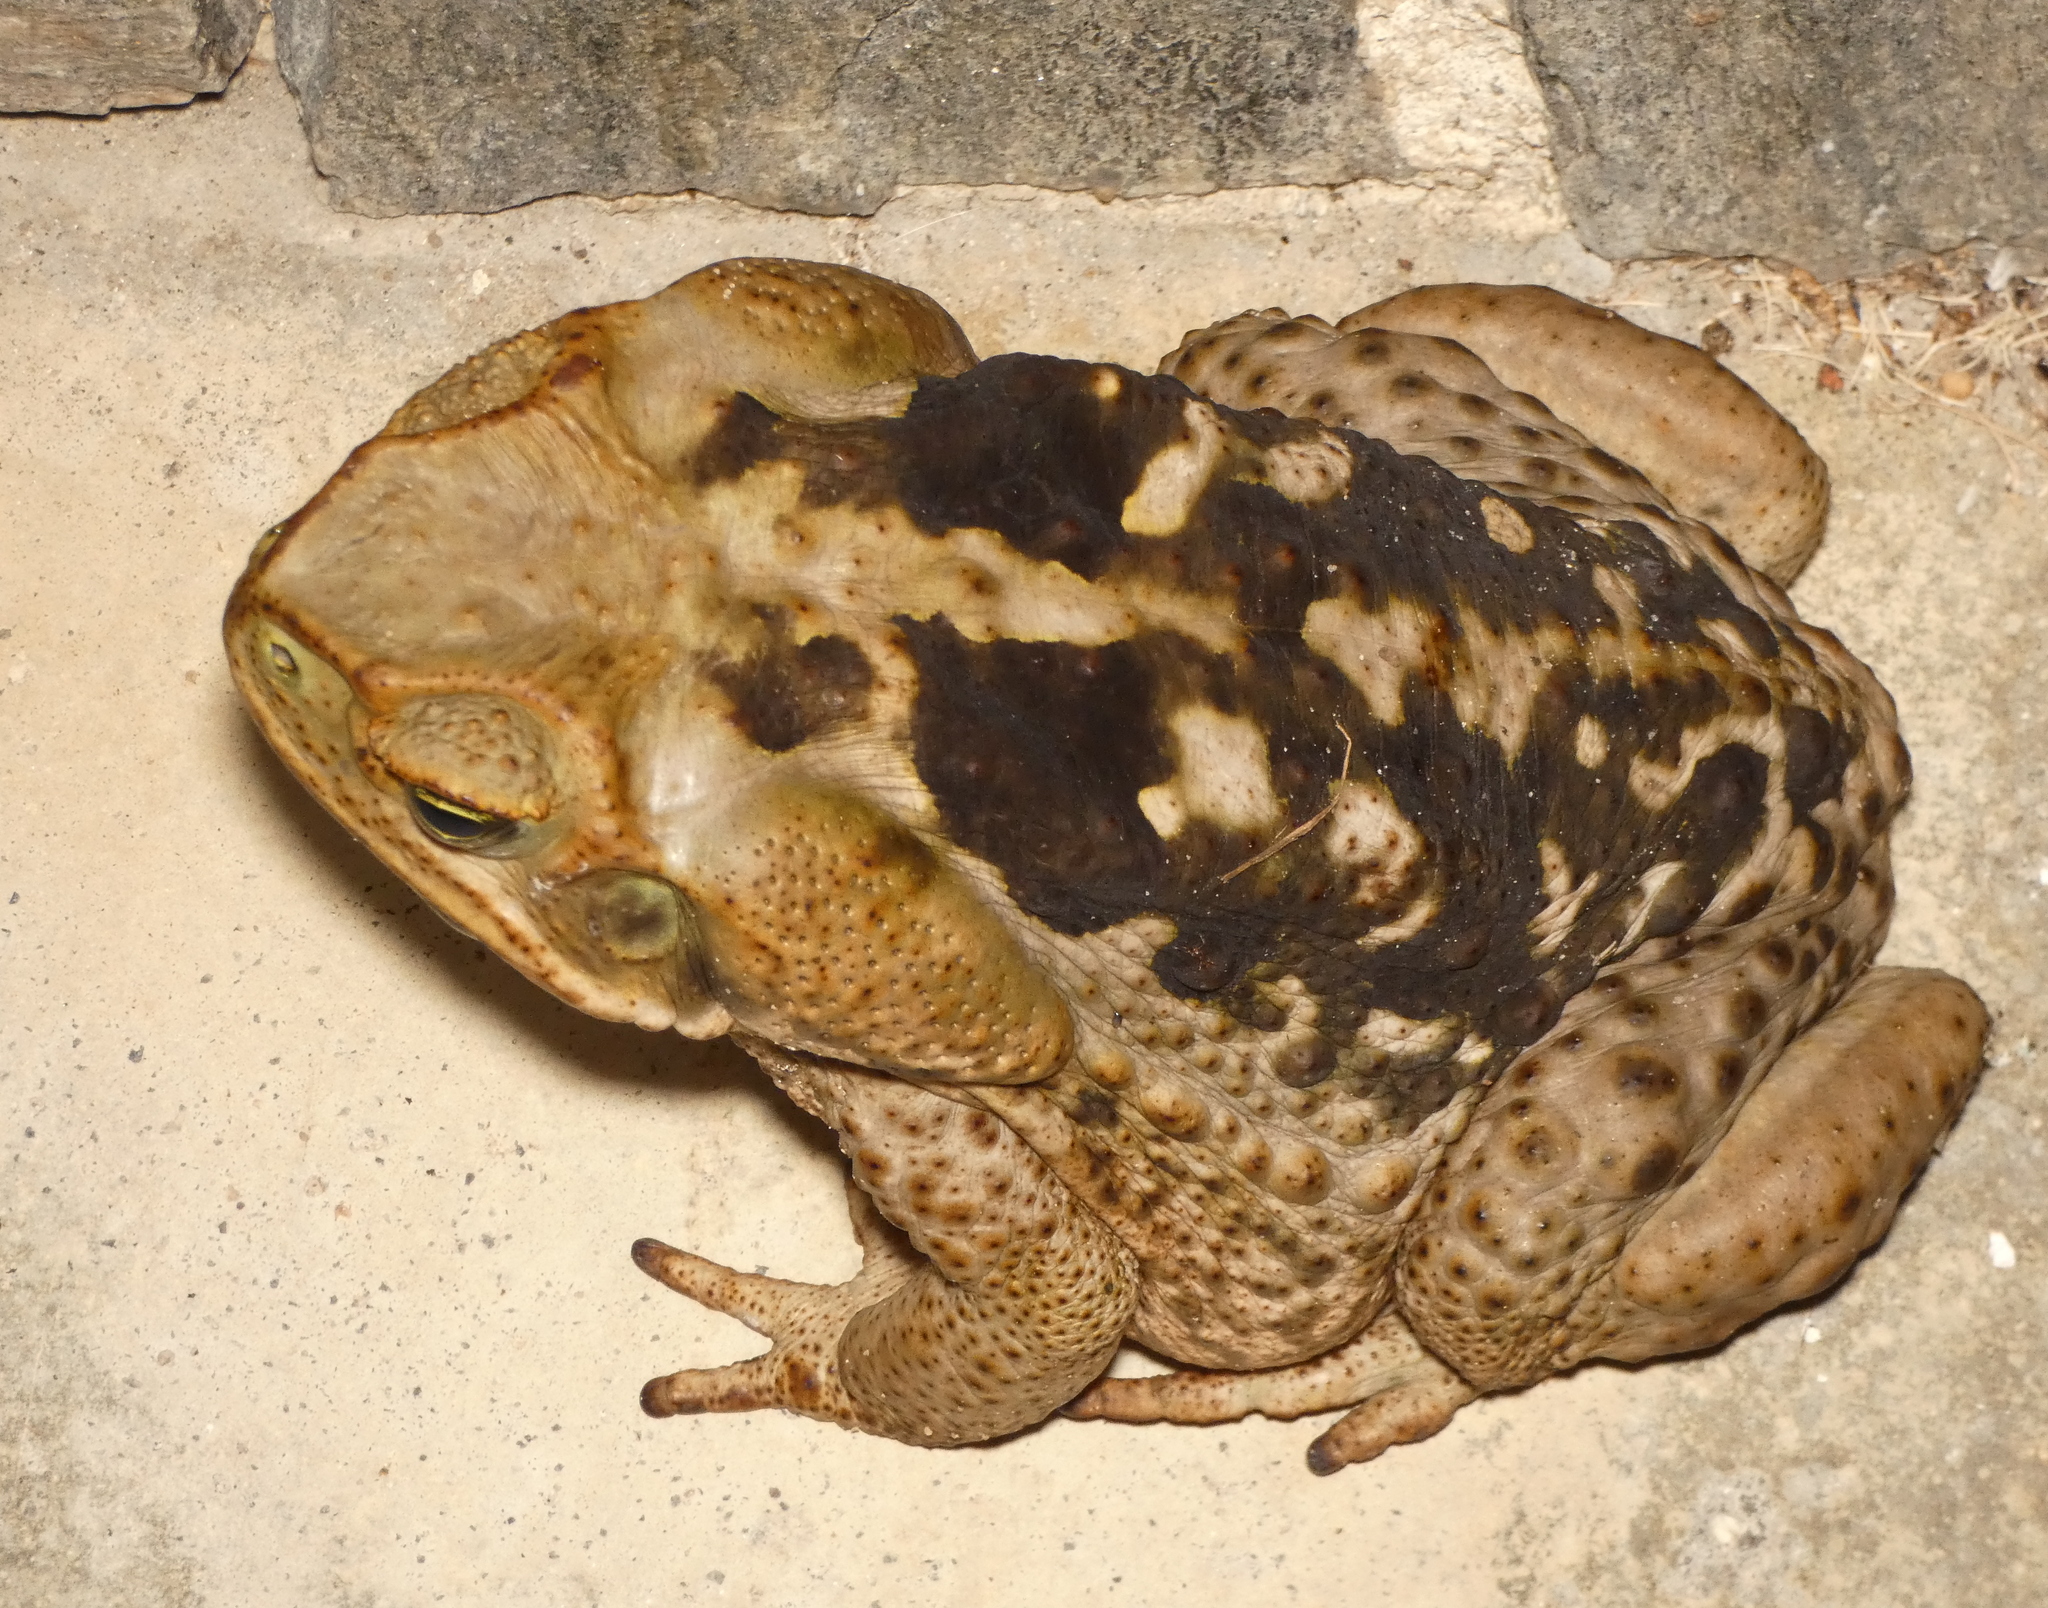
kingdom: Animalia
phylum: Chordata
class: Amphibia
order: Anura
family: Bufonidae
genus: Rhinella
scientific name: Rhinella diptycha
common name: Cope's toad
